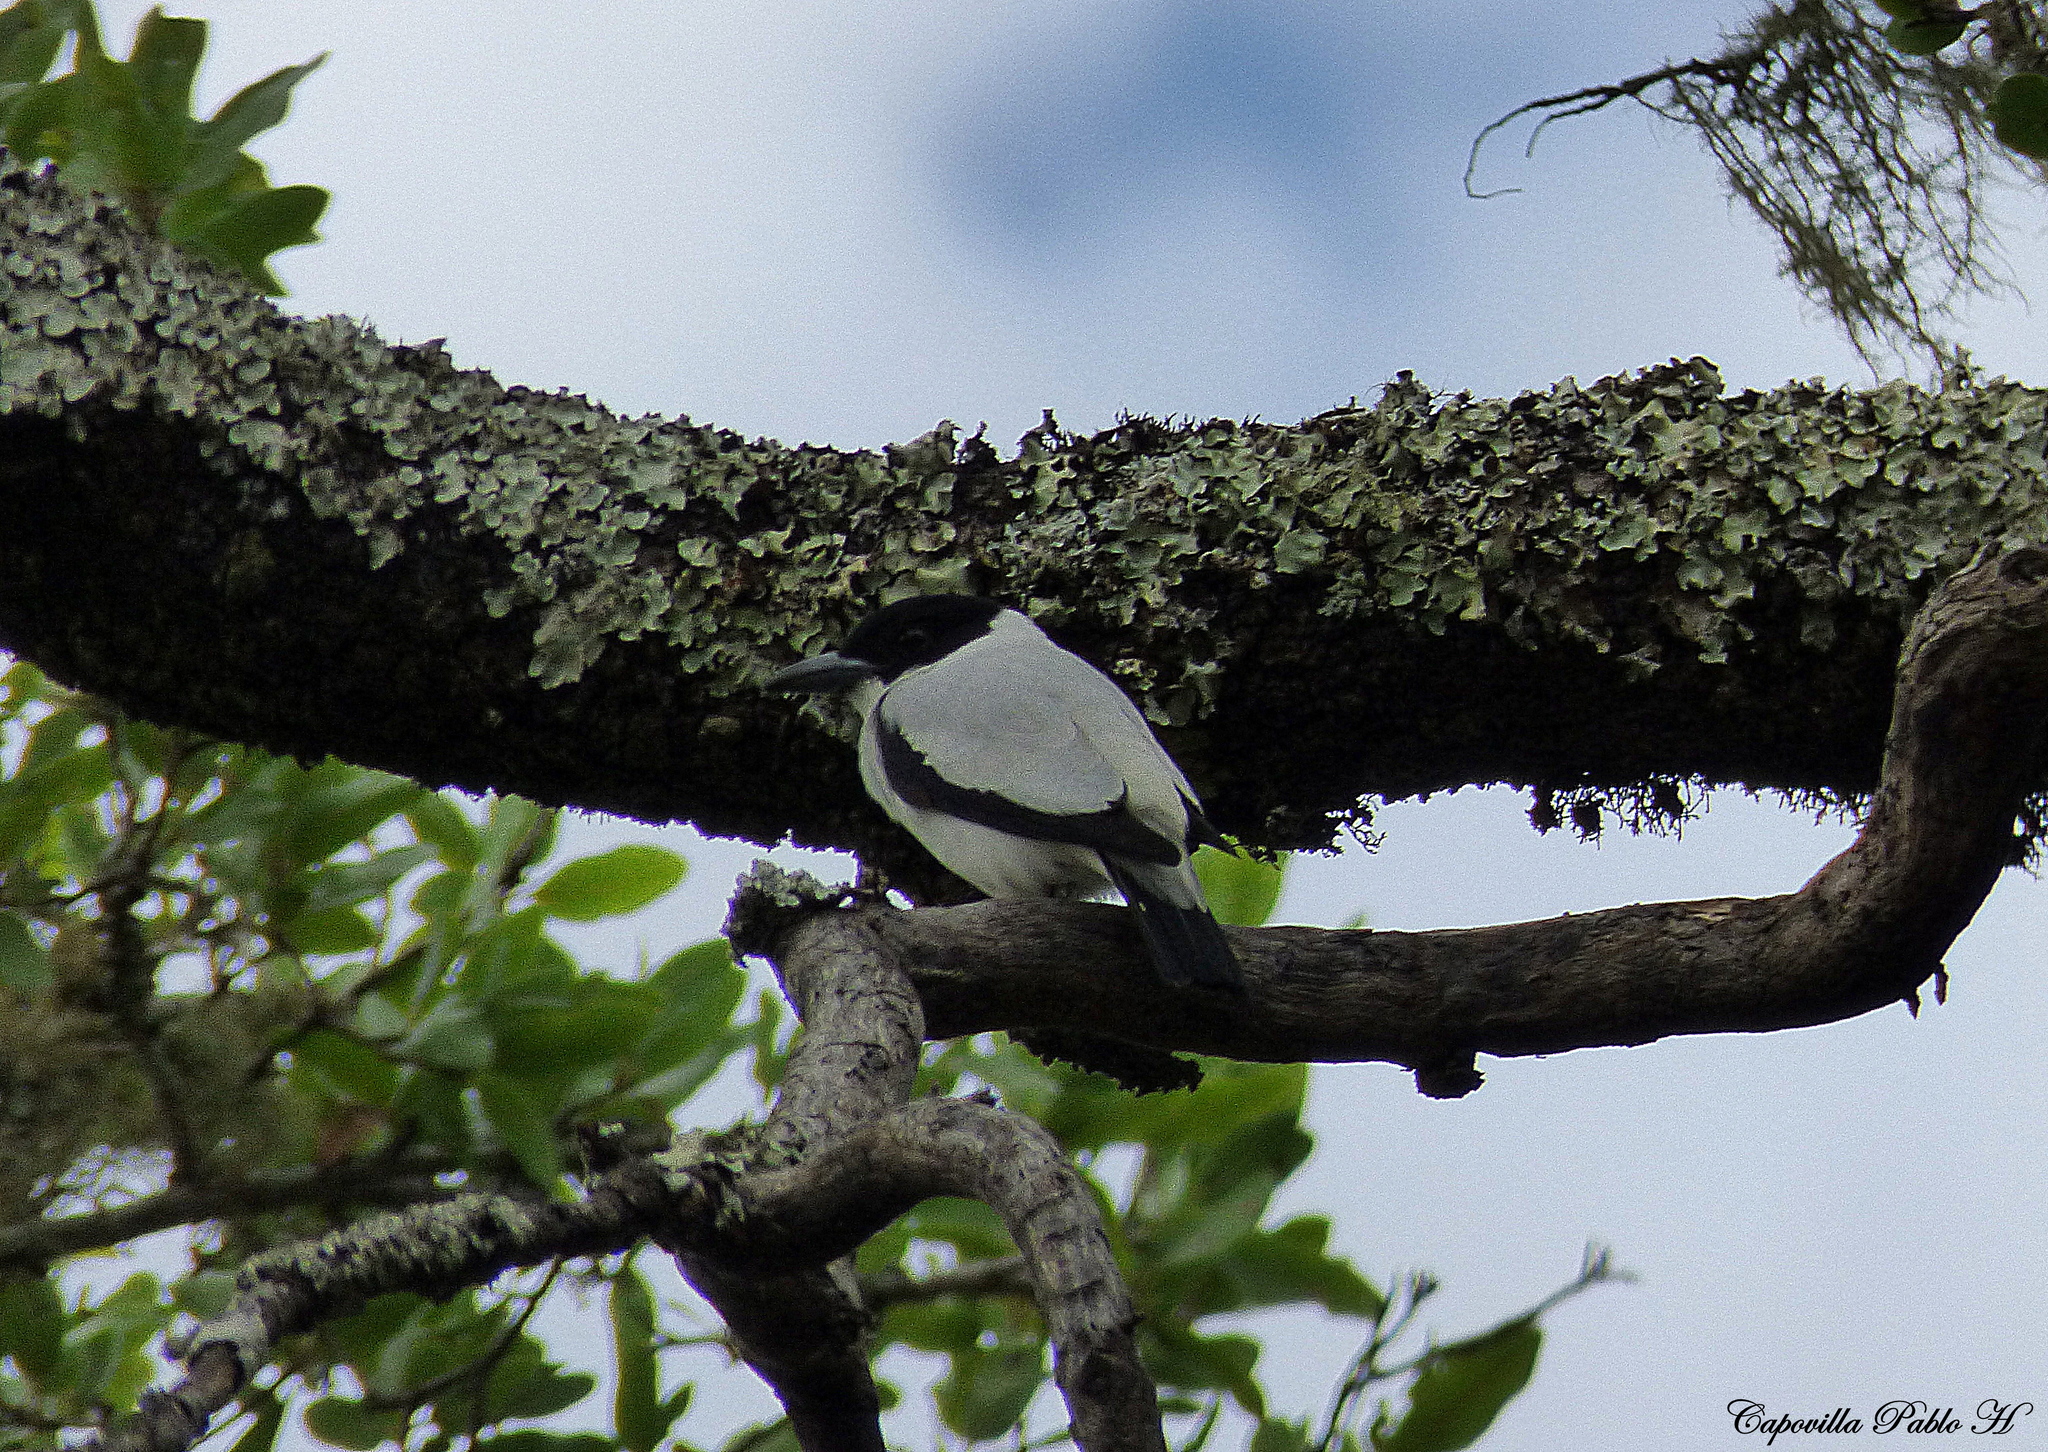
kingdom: Animalia
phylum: Chordata
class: Aves
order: Passeriformes
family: Cotingidae
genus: Tityra
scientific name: Tityra inquisitor
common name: Black-crowned tityra
